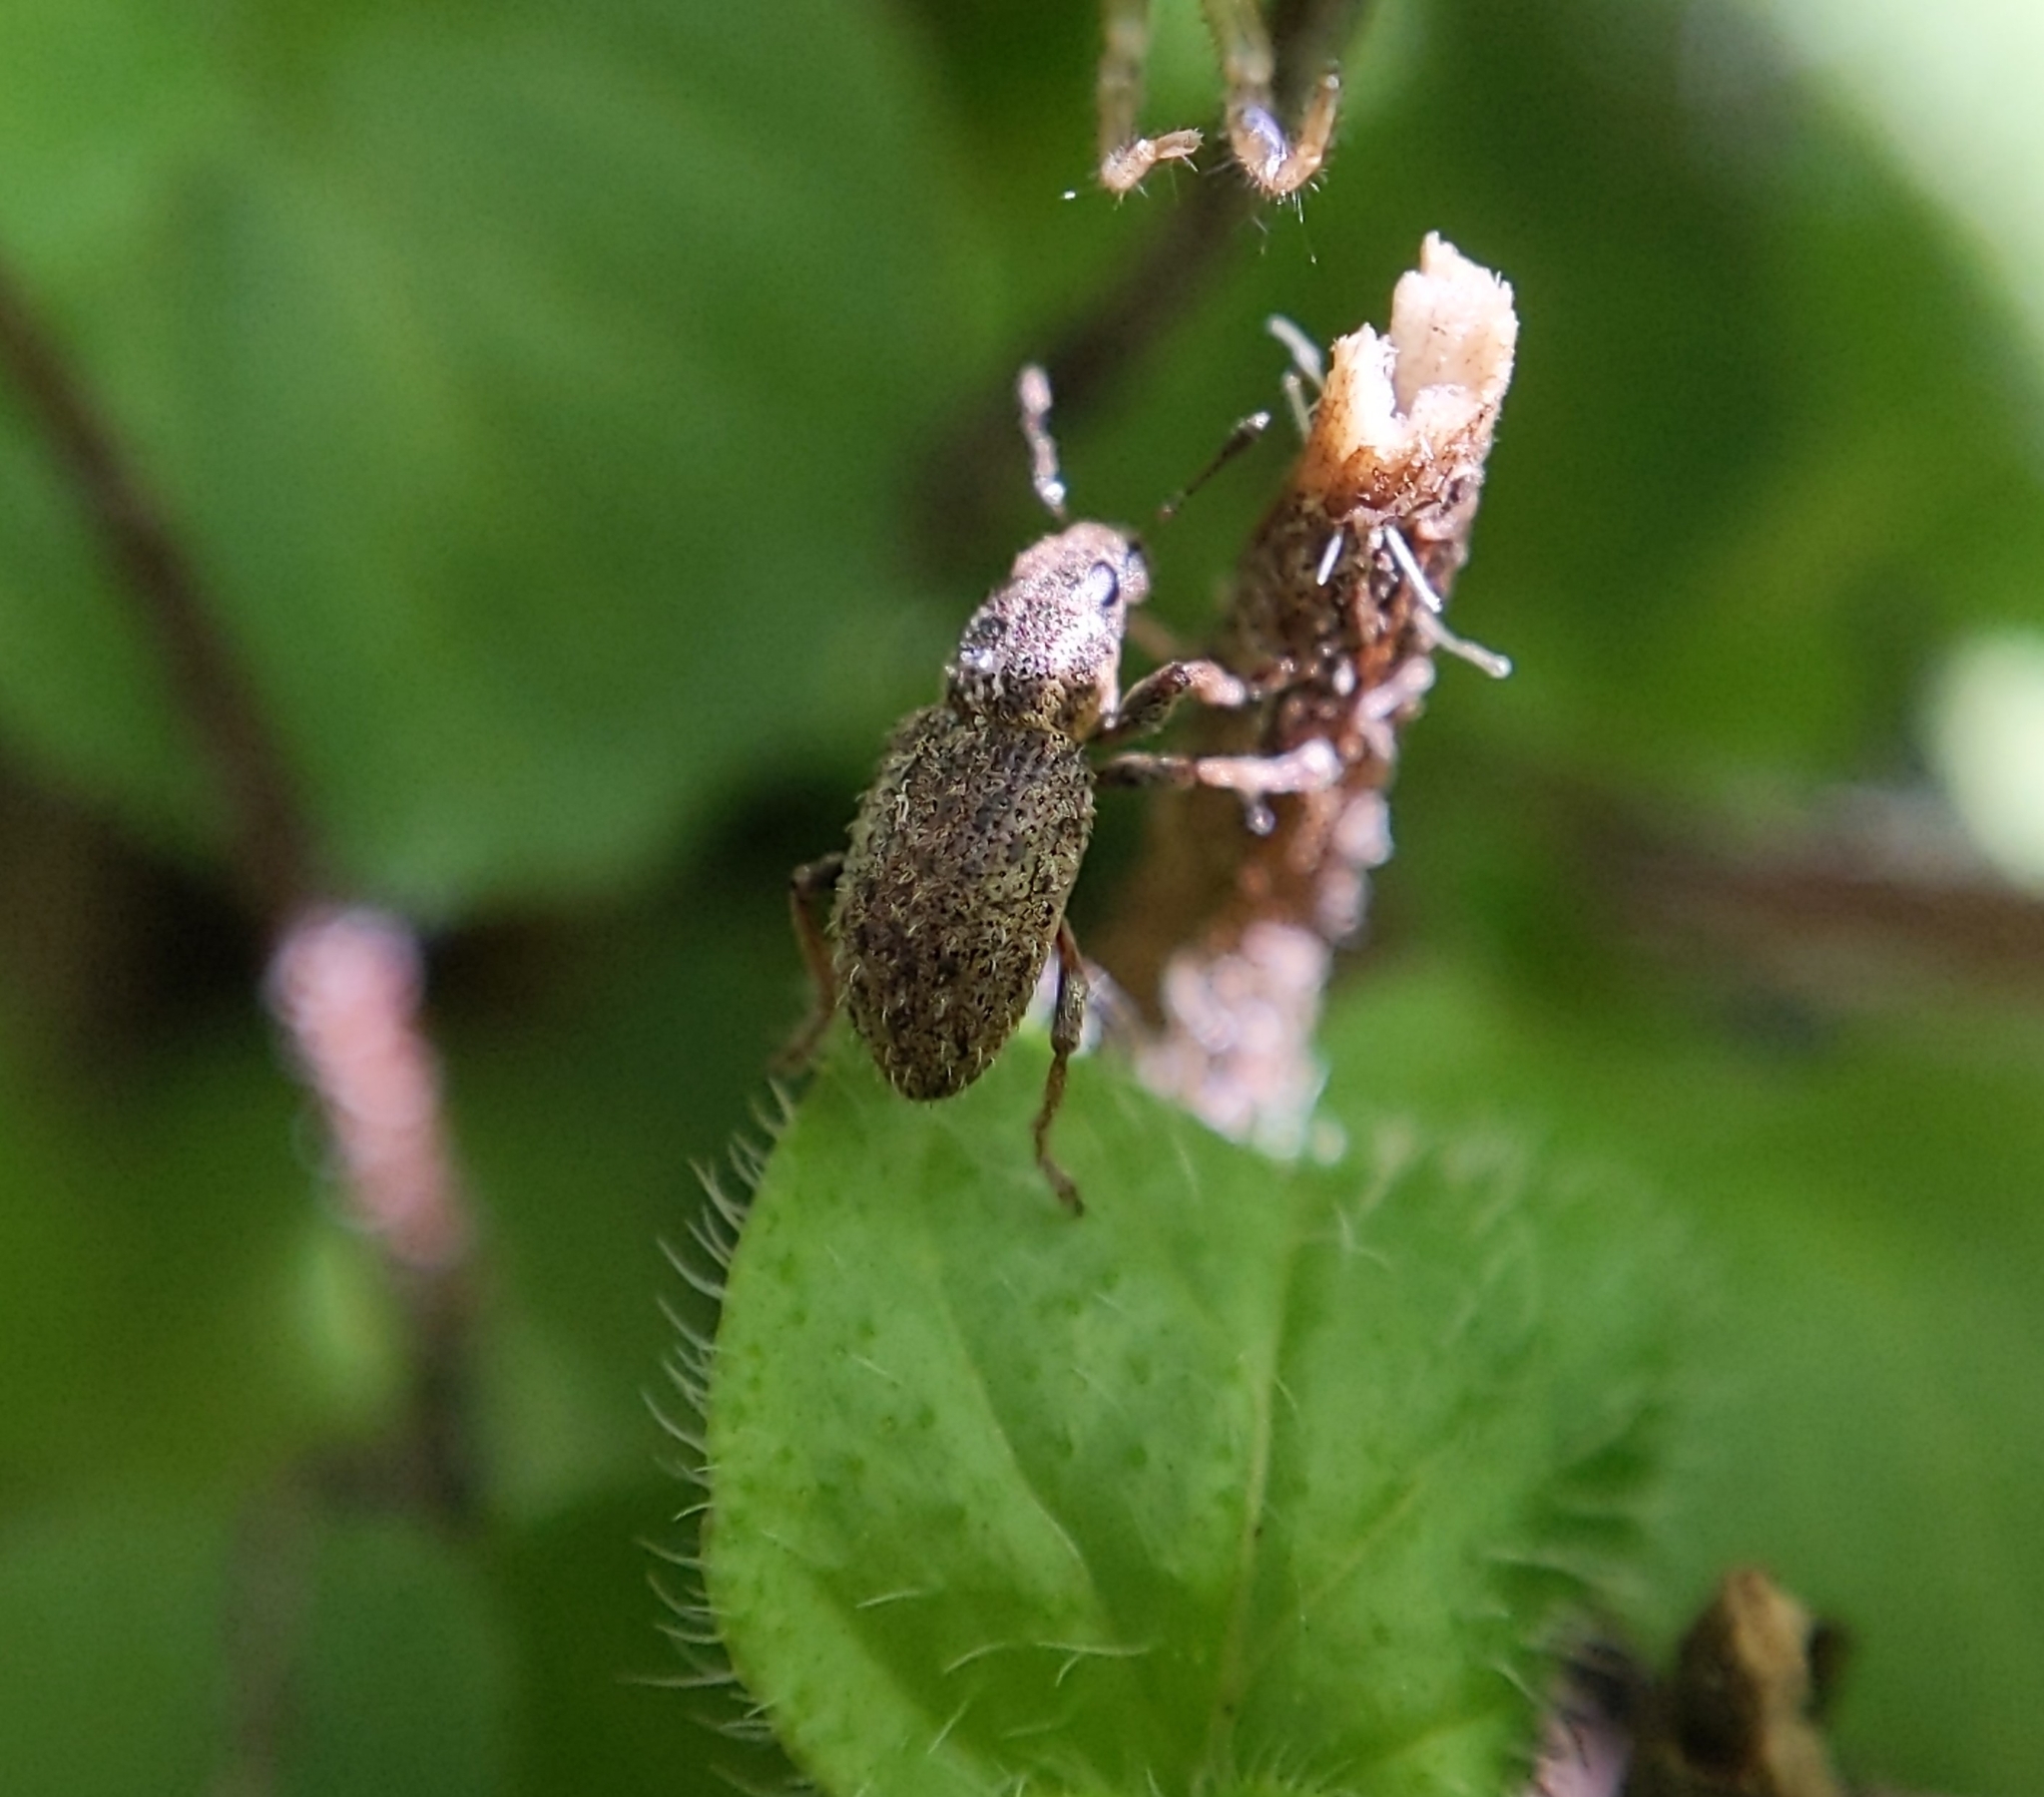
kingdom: Animalia
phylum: Arthropoda
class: Insecta
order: Coleoptera
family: Curculionidae
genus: Sitona
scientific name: Sitona hispidulus
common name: Clover weevil
